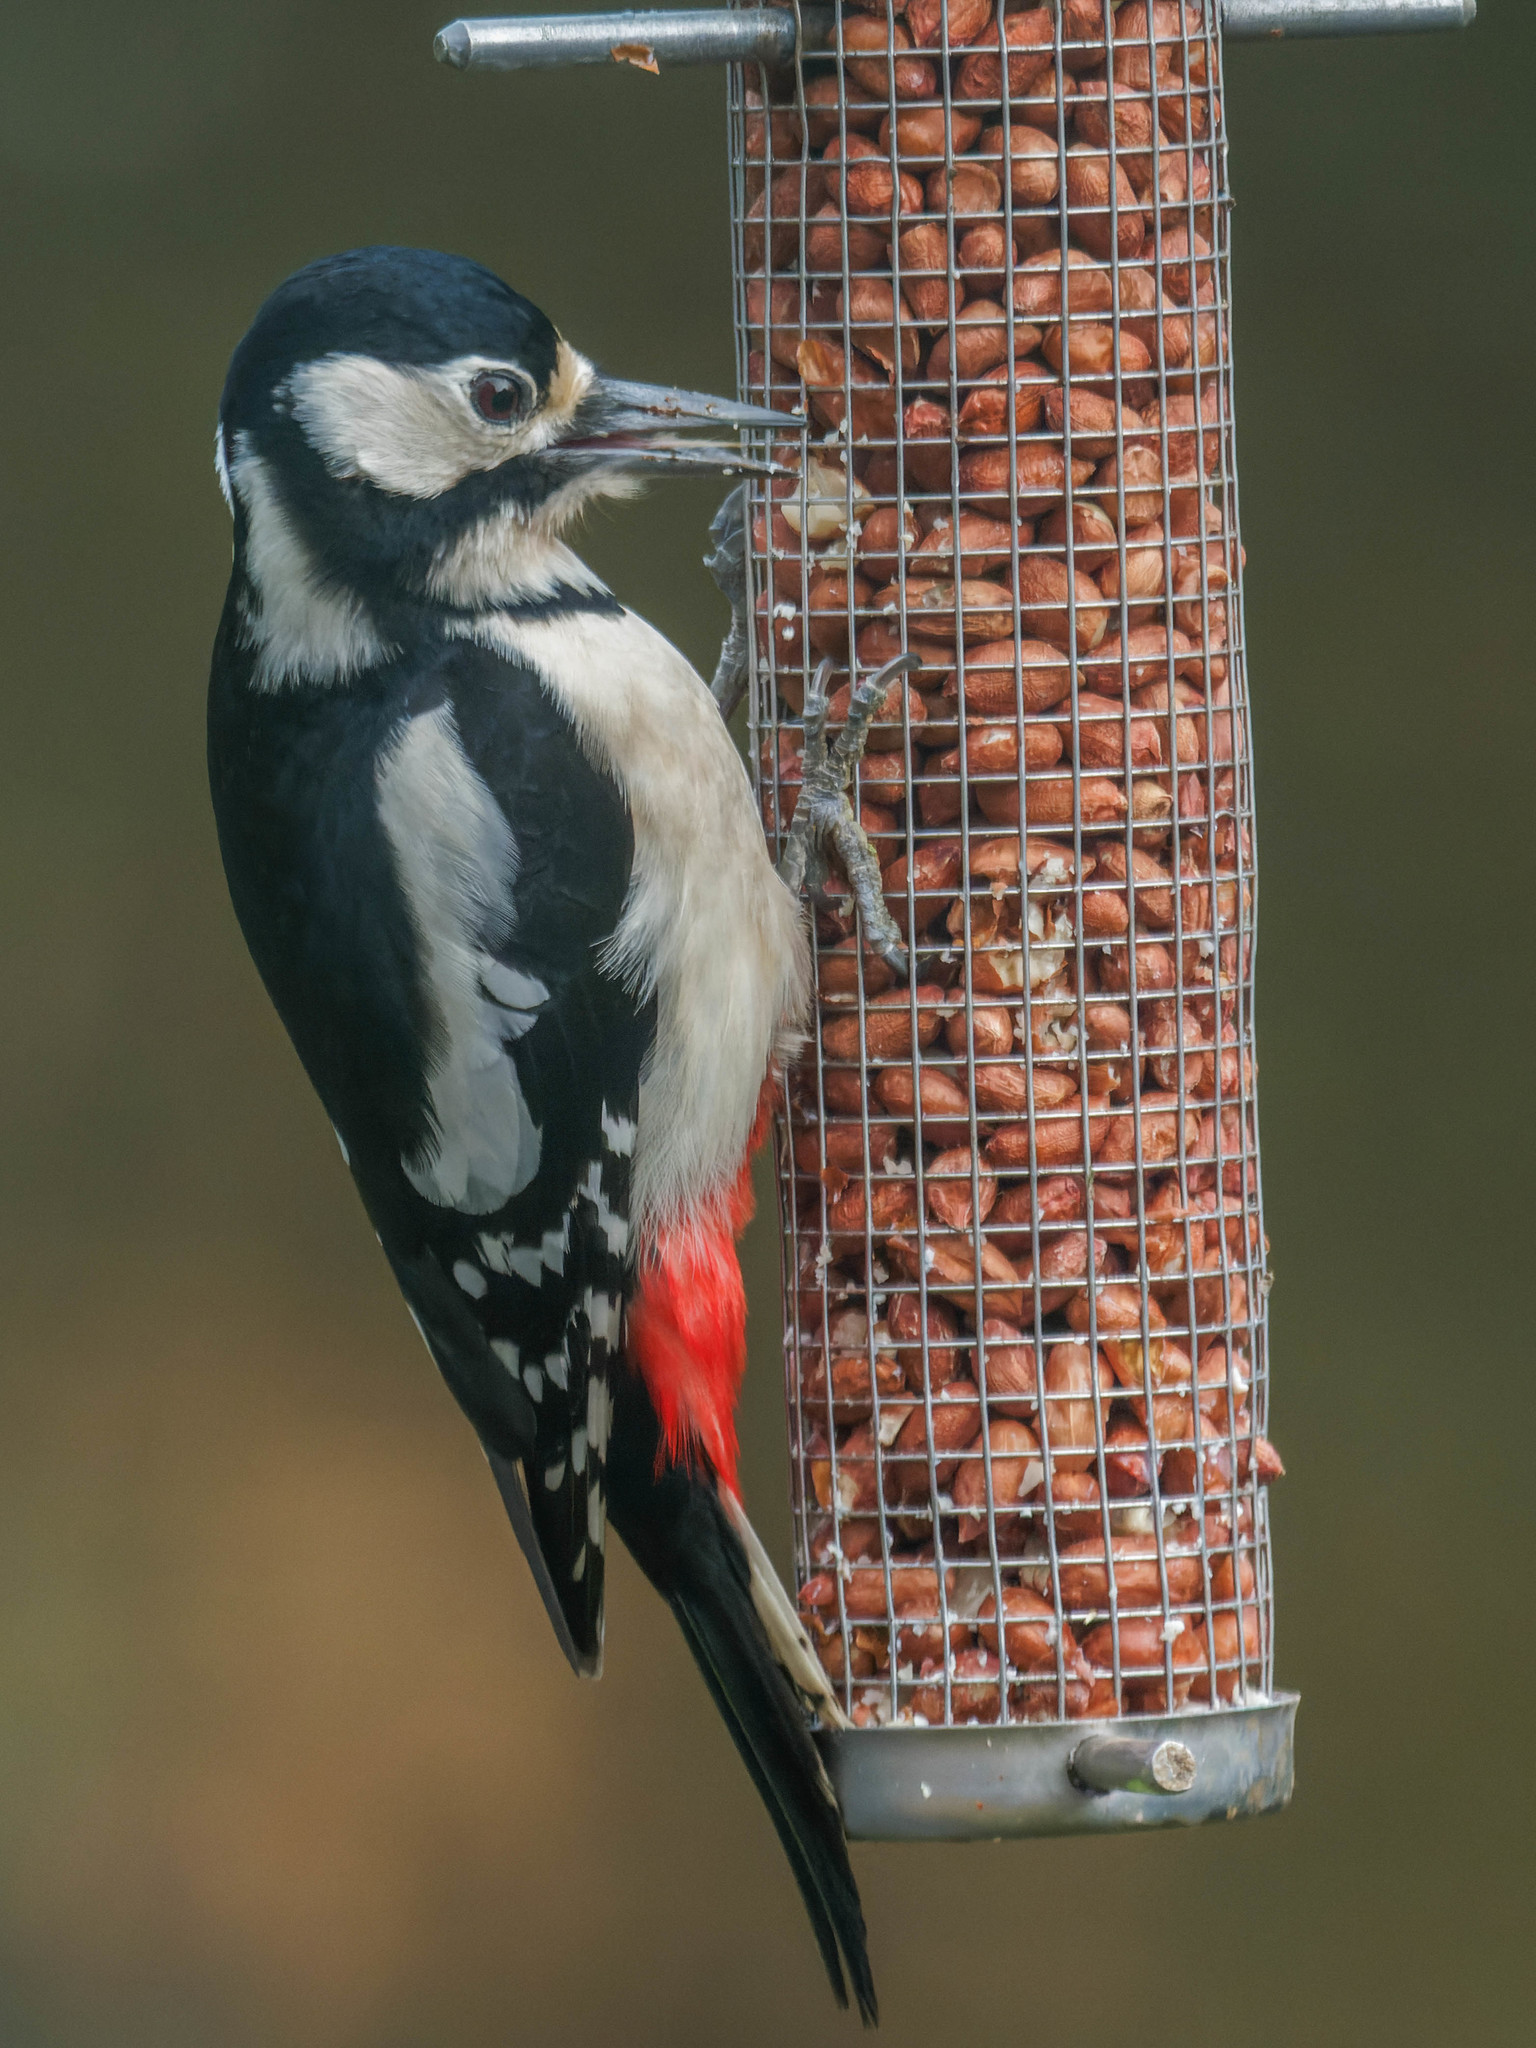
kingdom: Animalia
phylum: Chordata
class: Aves
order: Piciformes
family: Picidae
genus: Dendrocopos
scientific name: Dendrocopos major
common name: Great spotted woodpecker
